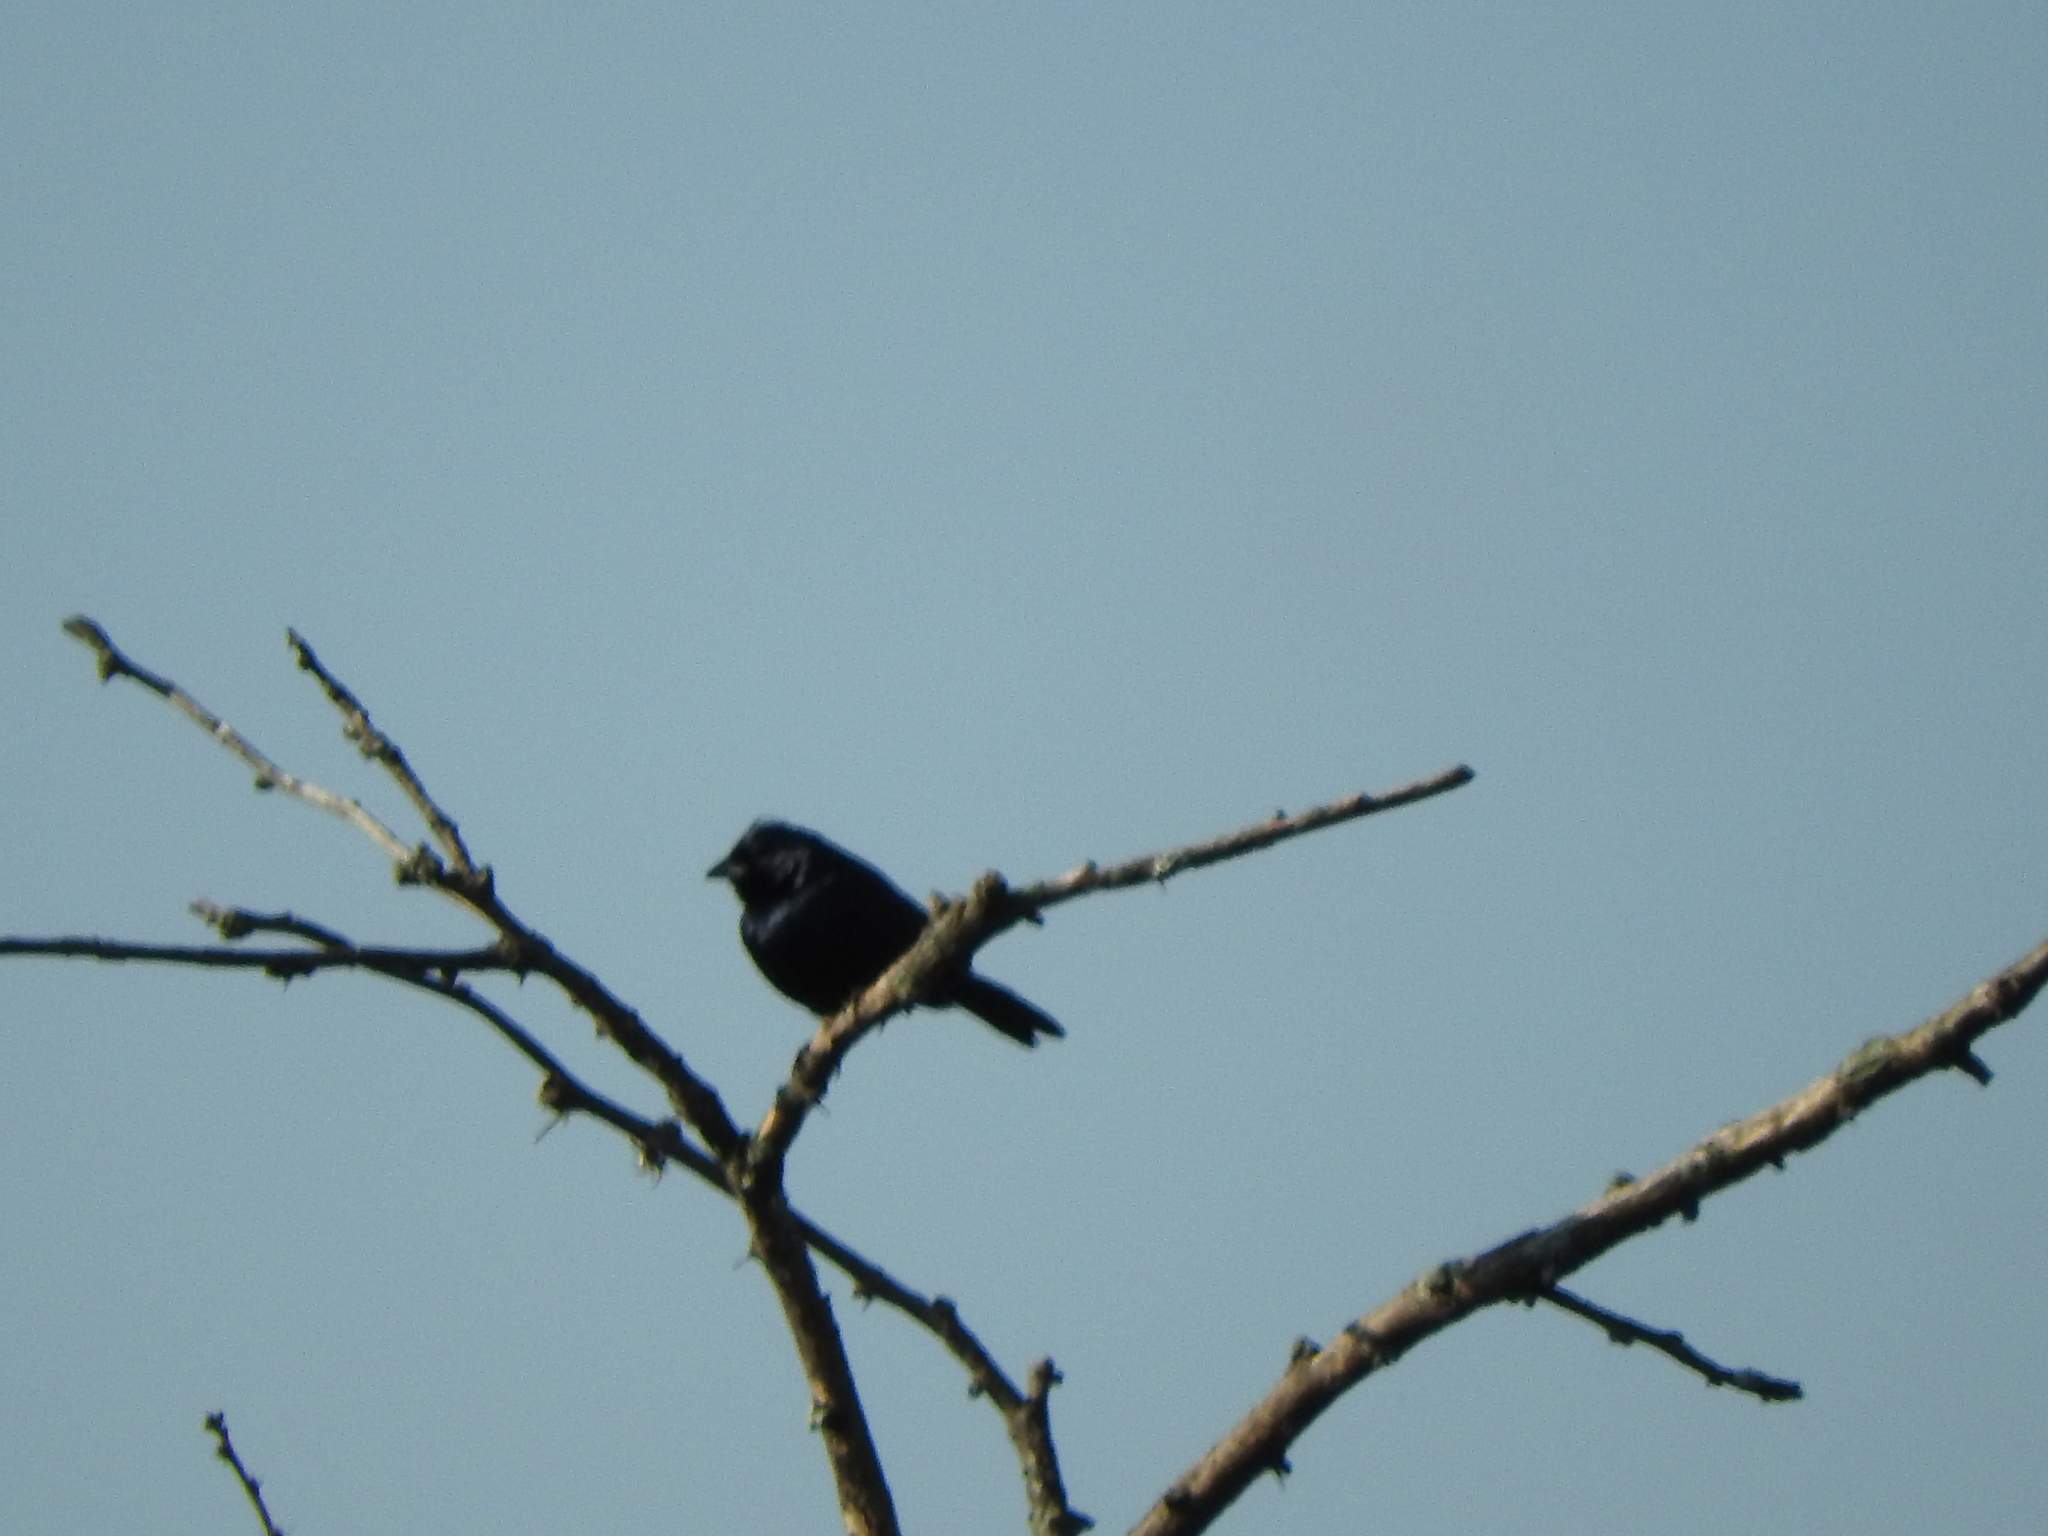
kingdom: Animalia
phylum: Chordata
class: Aves
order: Passeriformes
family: Thraupidae
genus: Volatinia
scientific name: Volatinia jacarina
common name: Blue-black grassquit
